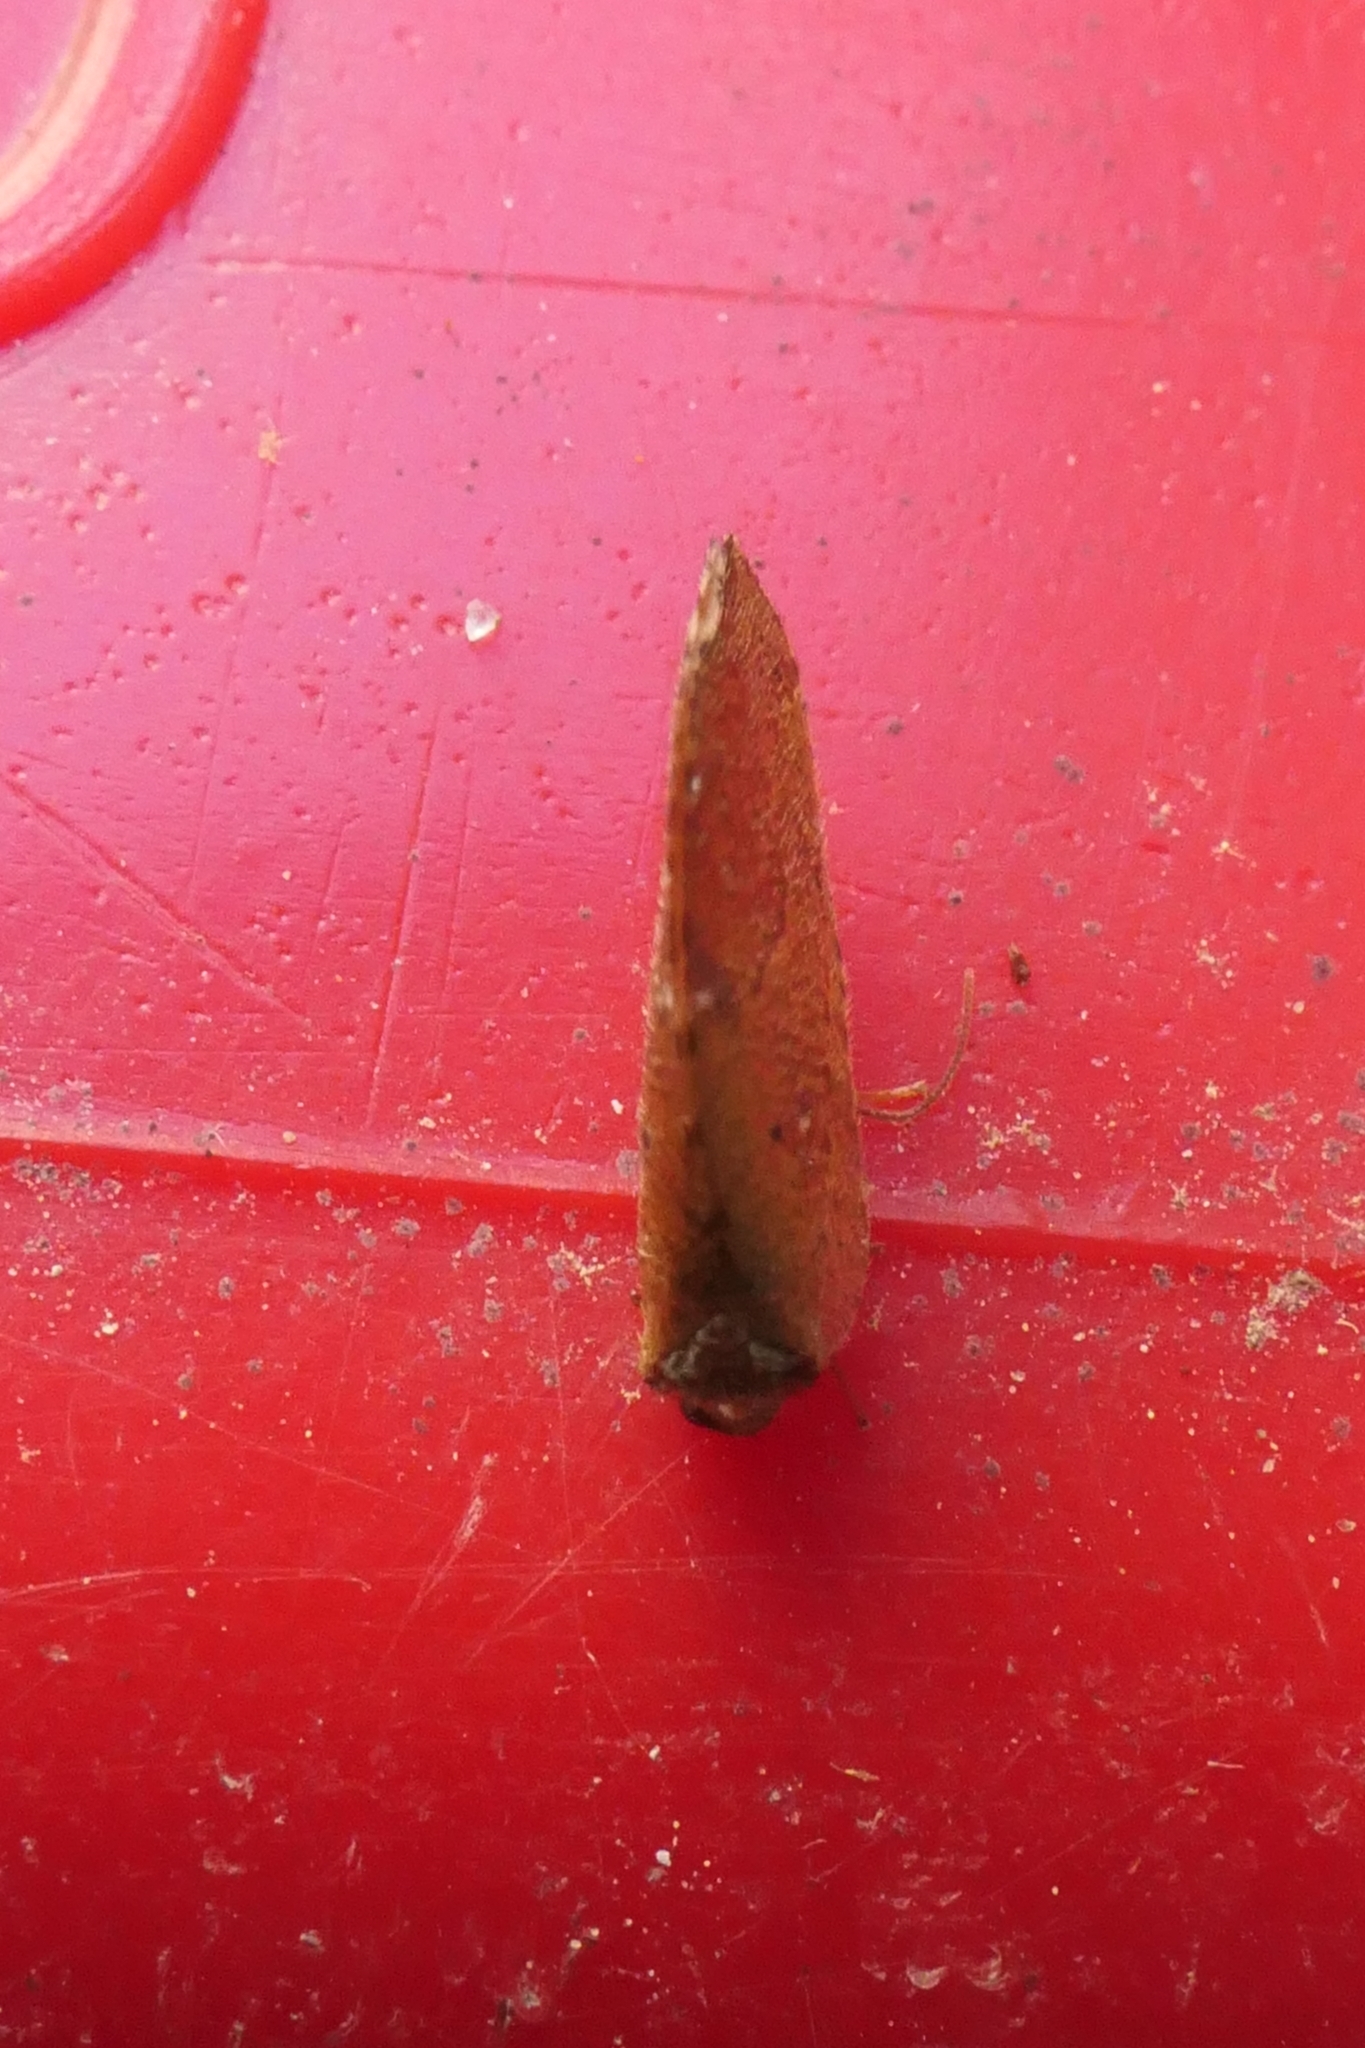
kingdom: Animalia
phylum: Arthropoda
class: Insecta
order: Neuroptera
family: Hemerobiidae
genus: Drepanacra
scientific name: Drepanacra binocula
